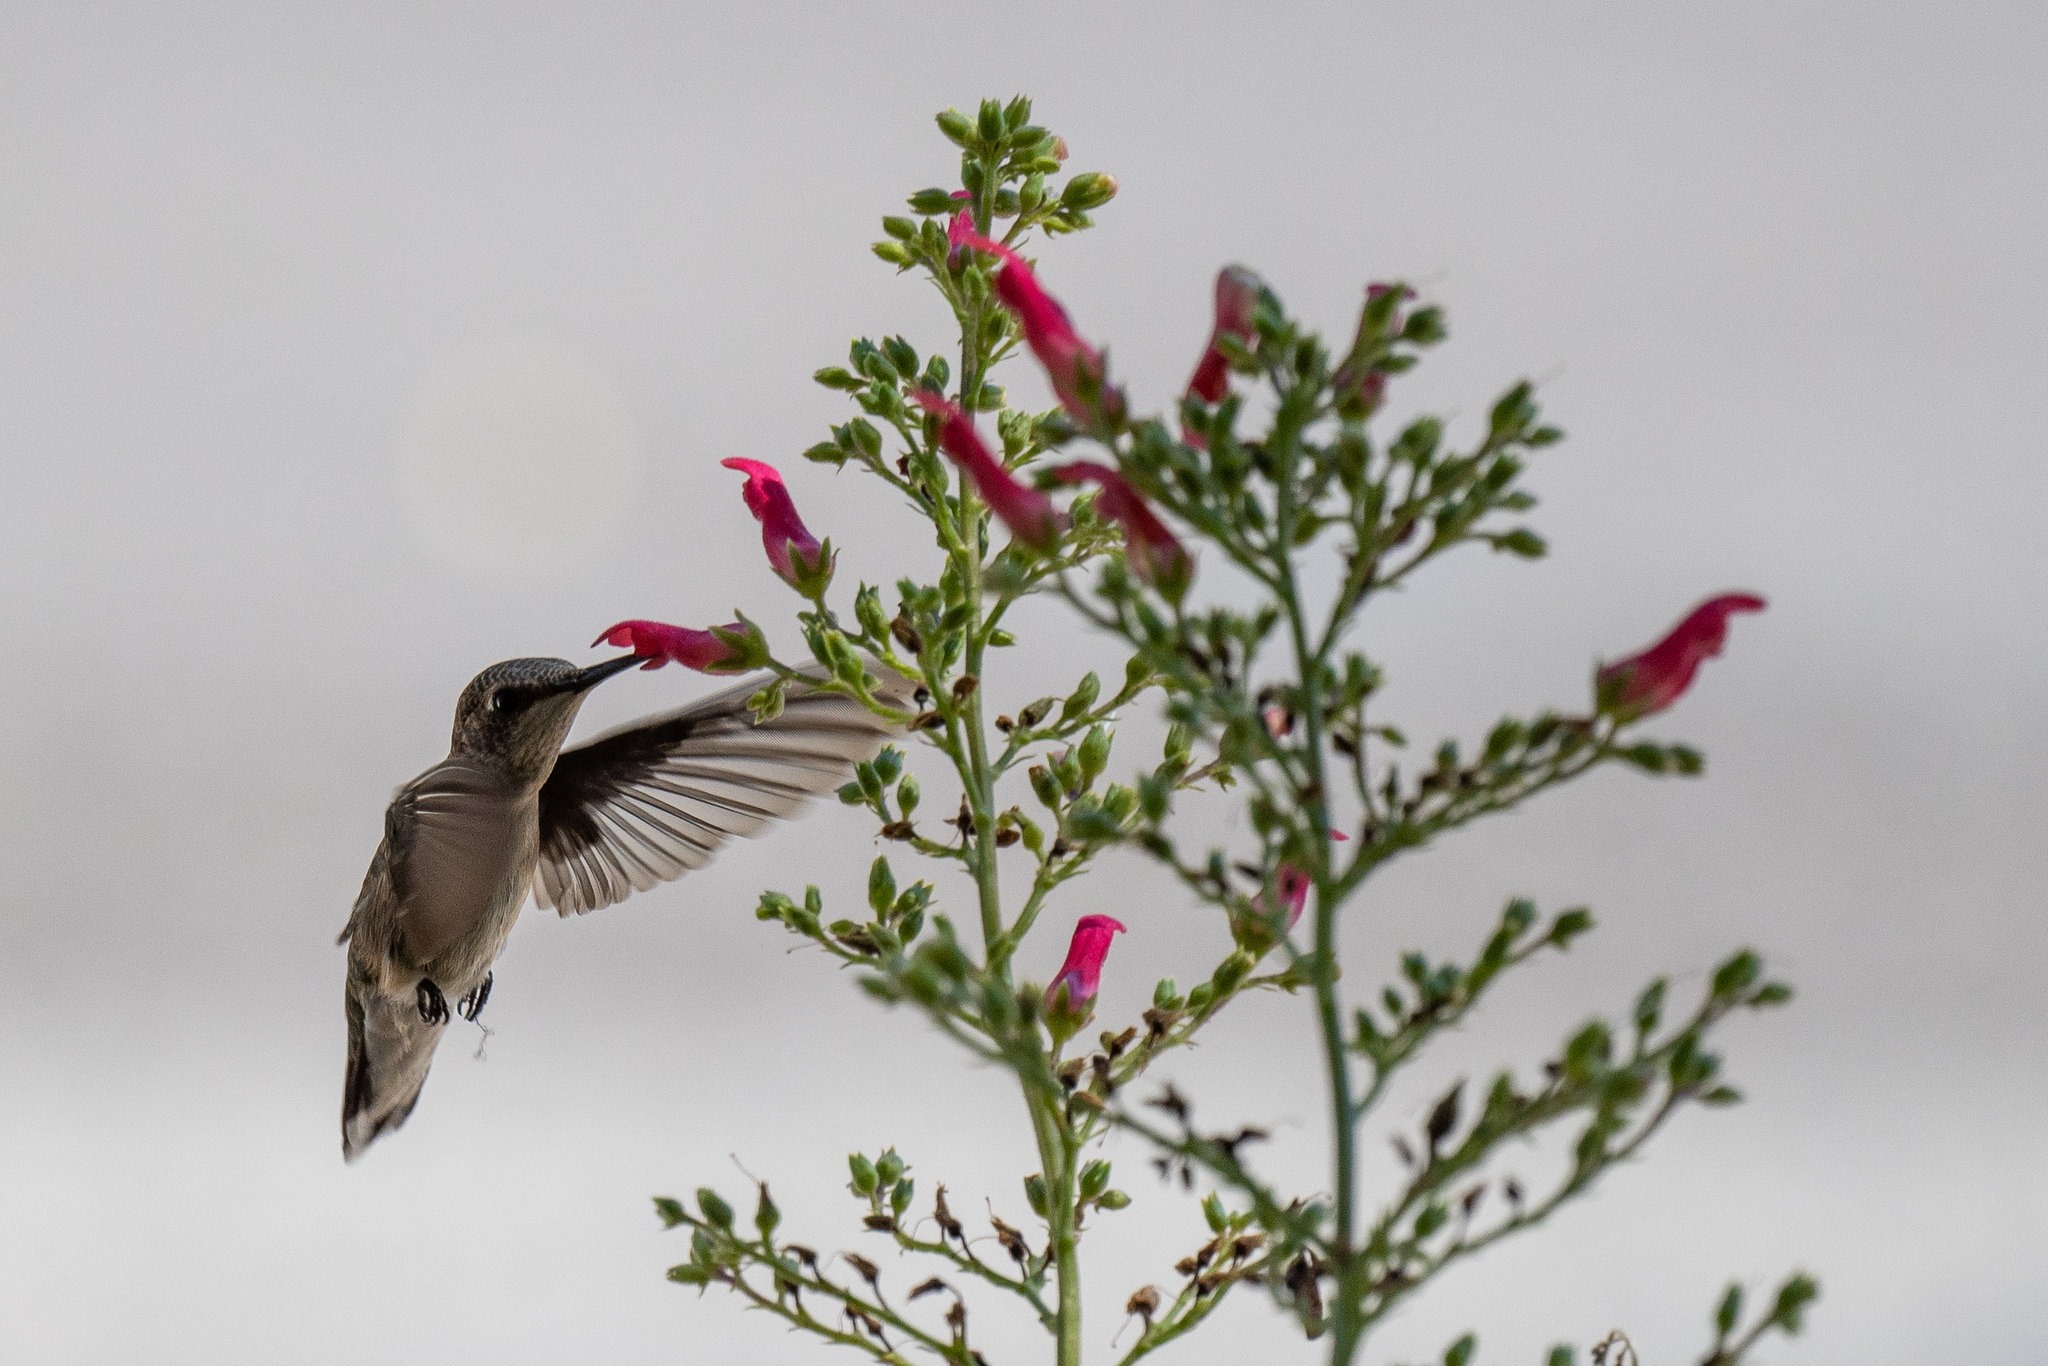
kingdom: Animalia
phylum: Chordata
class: Aves
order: Apodiformes
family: Trochilidae
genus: Archilochus
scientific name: Archilochus alexandri
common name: Black-chinned hummingbird
